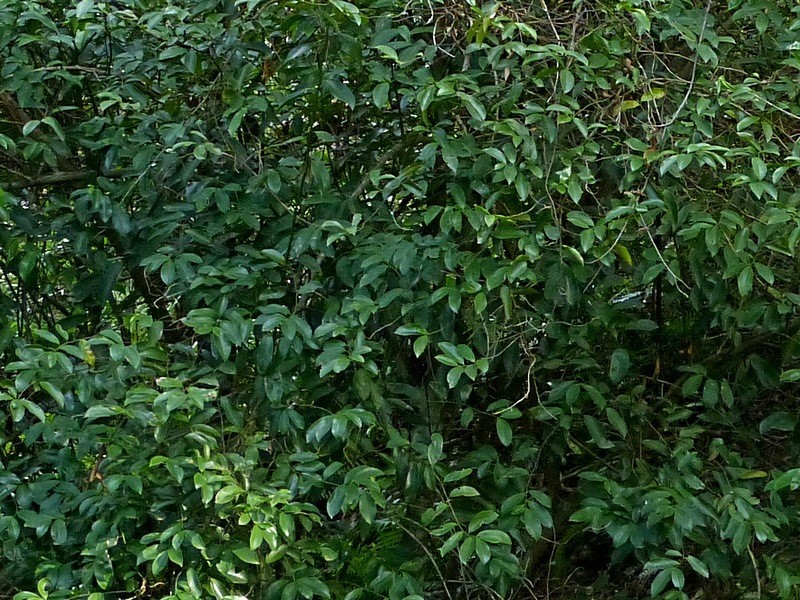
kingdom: Plantae
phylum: Tracheophyta
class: Magnoliopsida
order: Magnoliales
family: Eupomatiaceae
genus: Eupomatia
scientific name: Eupomatia laurina
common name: Bolwarra
